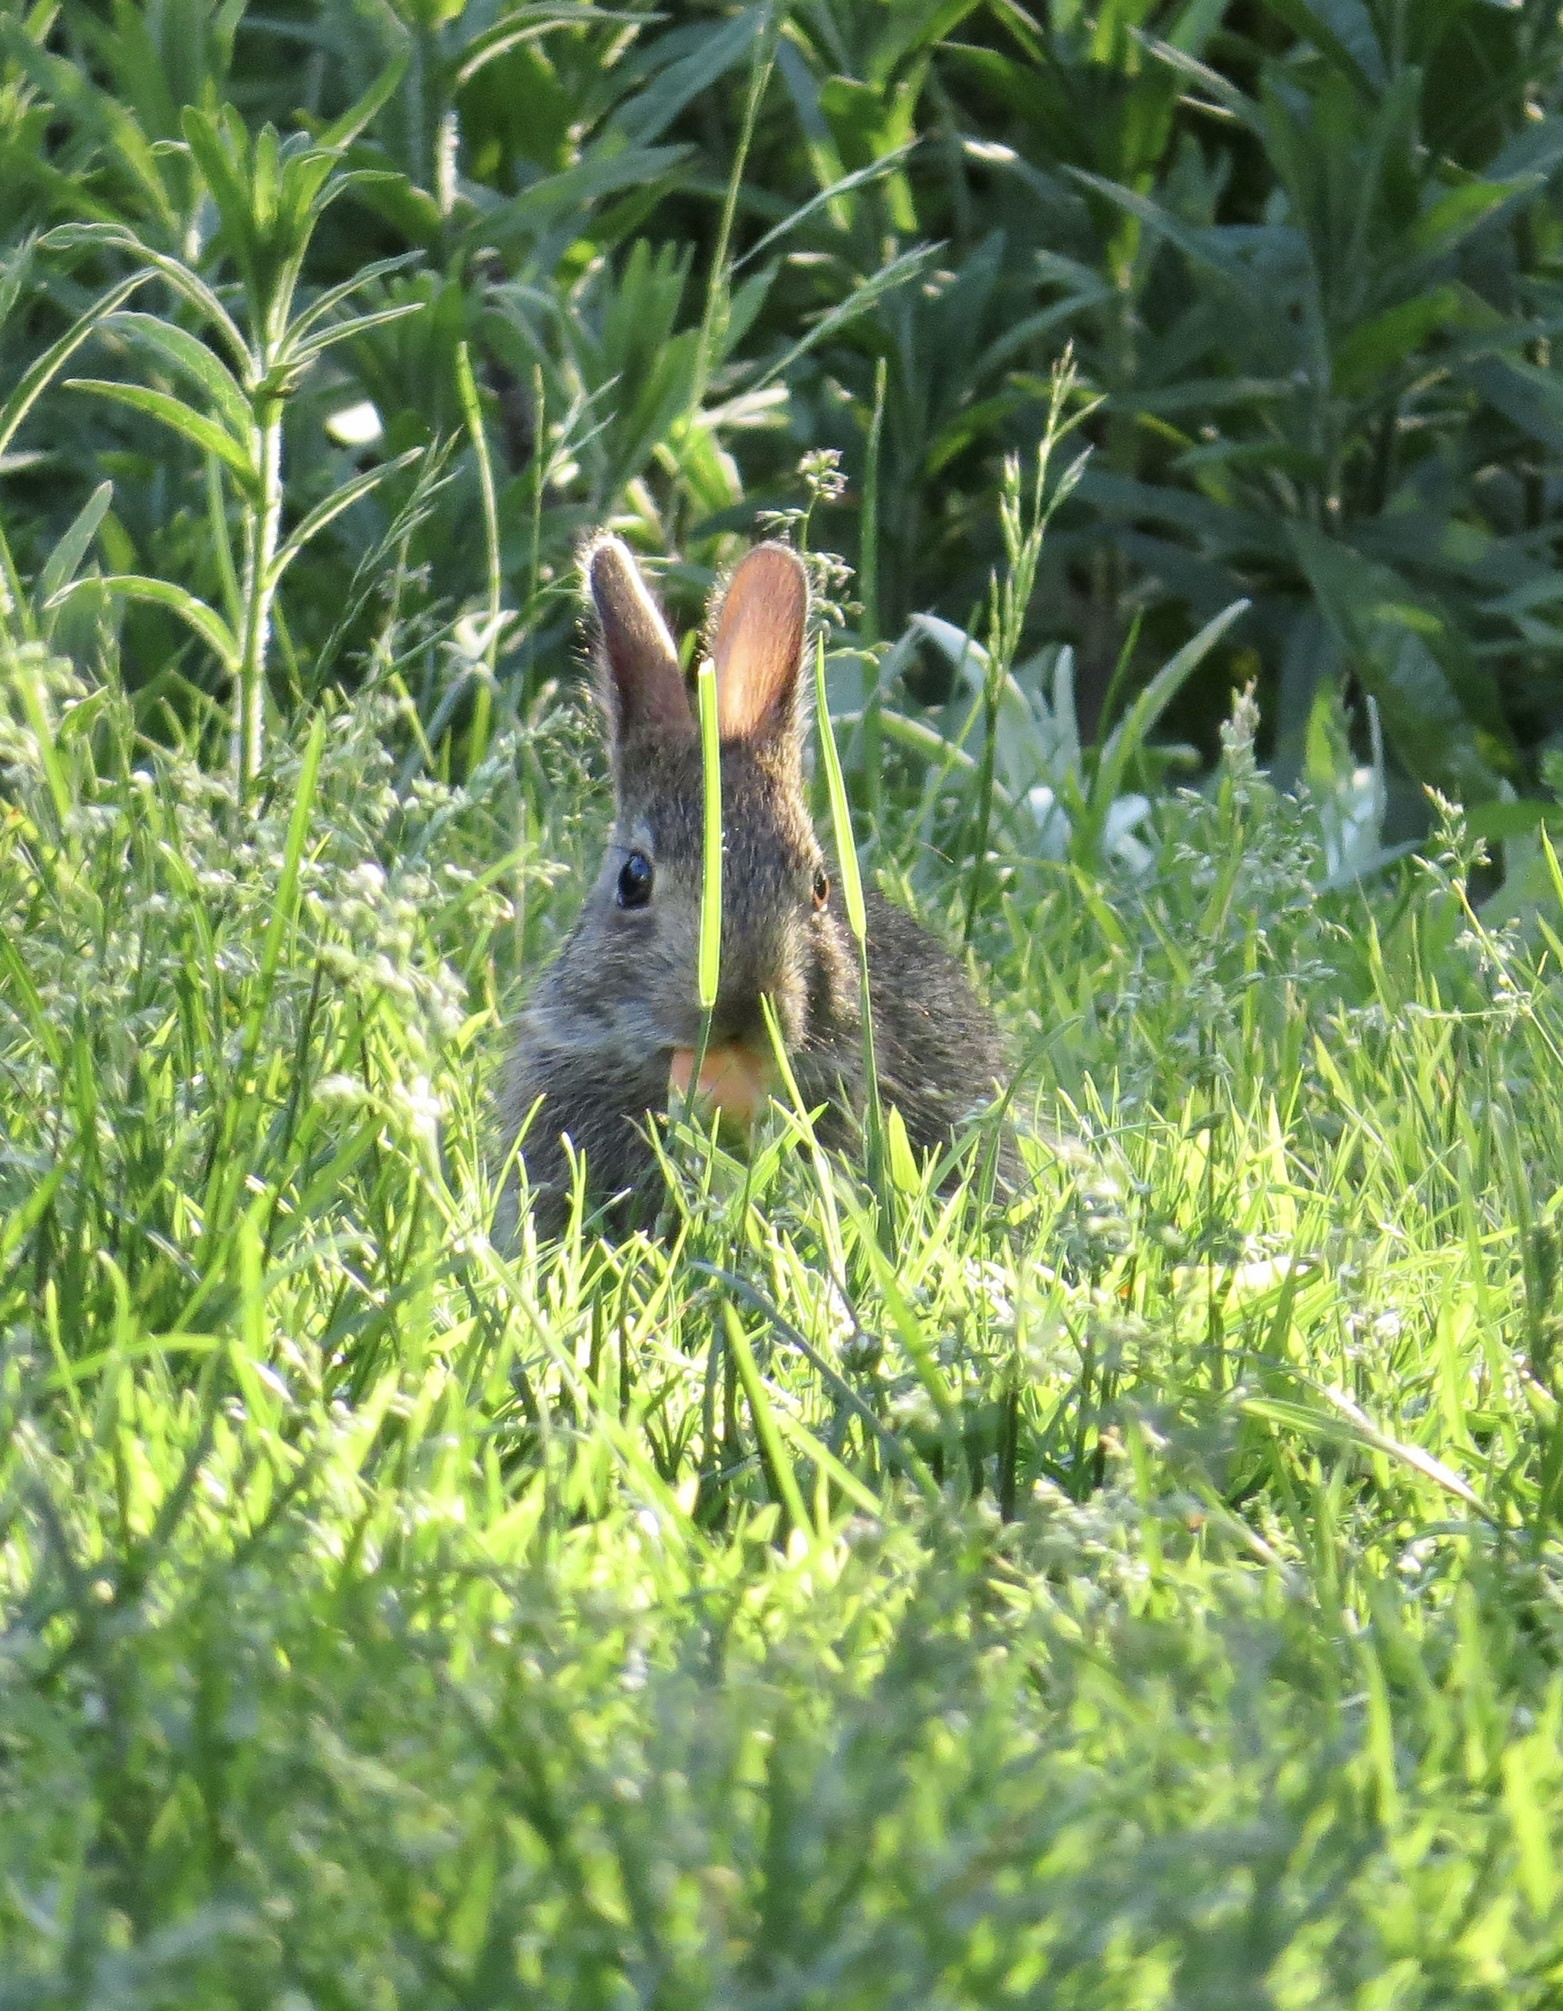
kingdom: Animalia
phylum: Chordata
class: Mammalia
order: Lagomorpha
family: Leporidae
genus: Sylvilagus
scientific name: Sylvilagus floridanus
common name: Eastern cottontail
